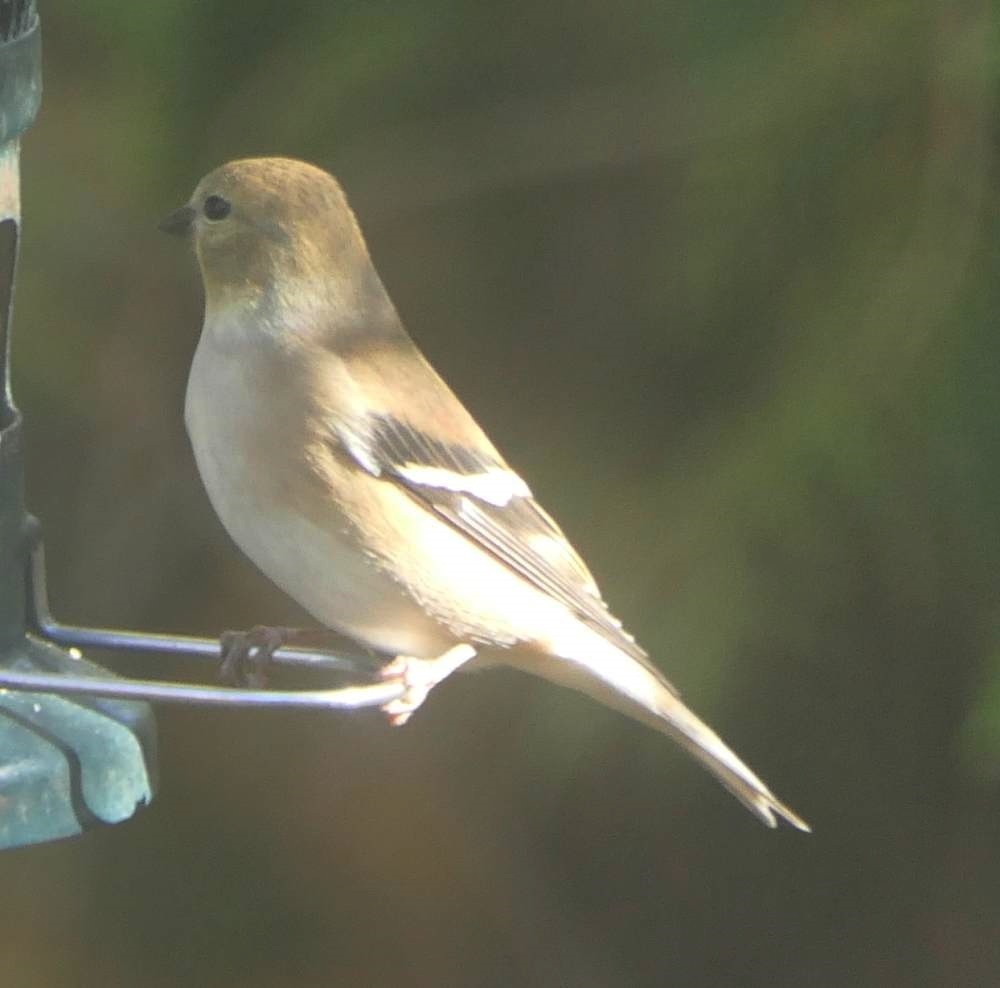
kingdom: Animalia
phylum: Chordata
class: Aves
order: Passeriformes
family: Fringillidae
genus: Spinus
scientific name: Spinus tristis
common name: American goldfinch
